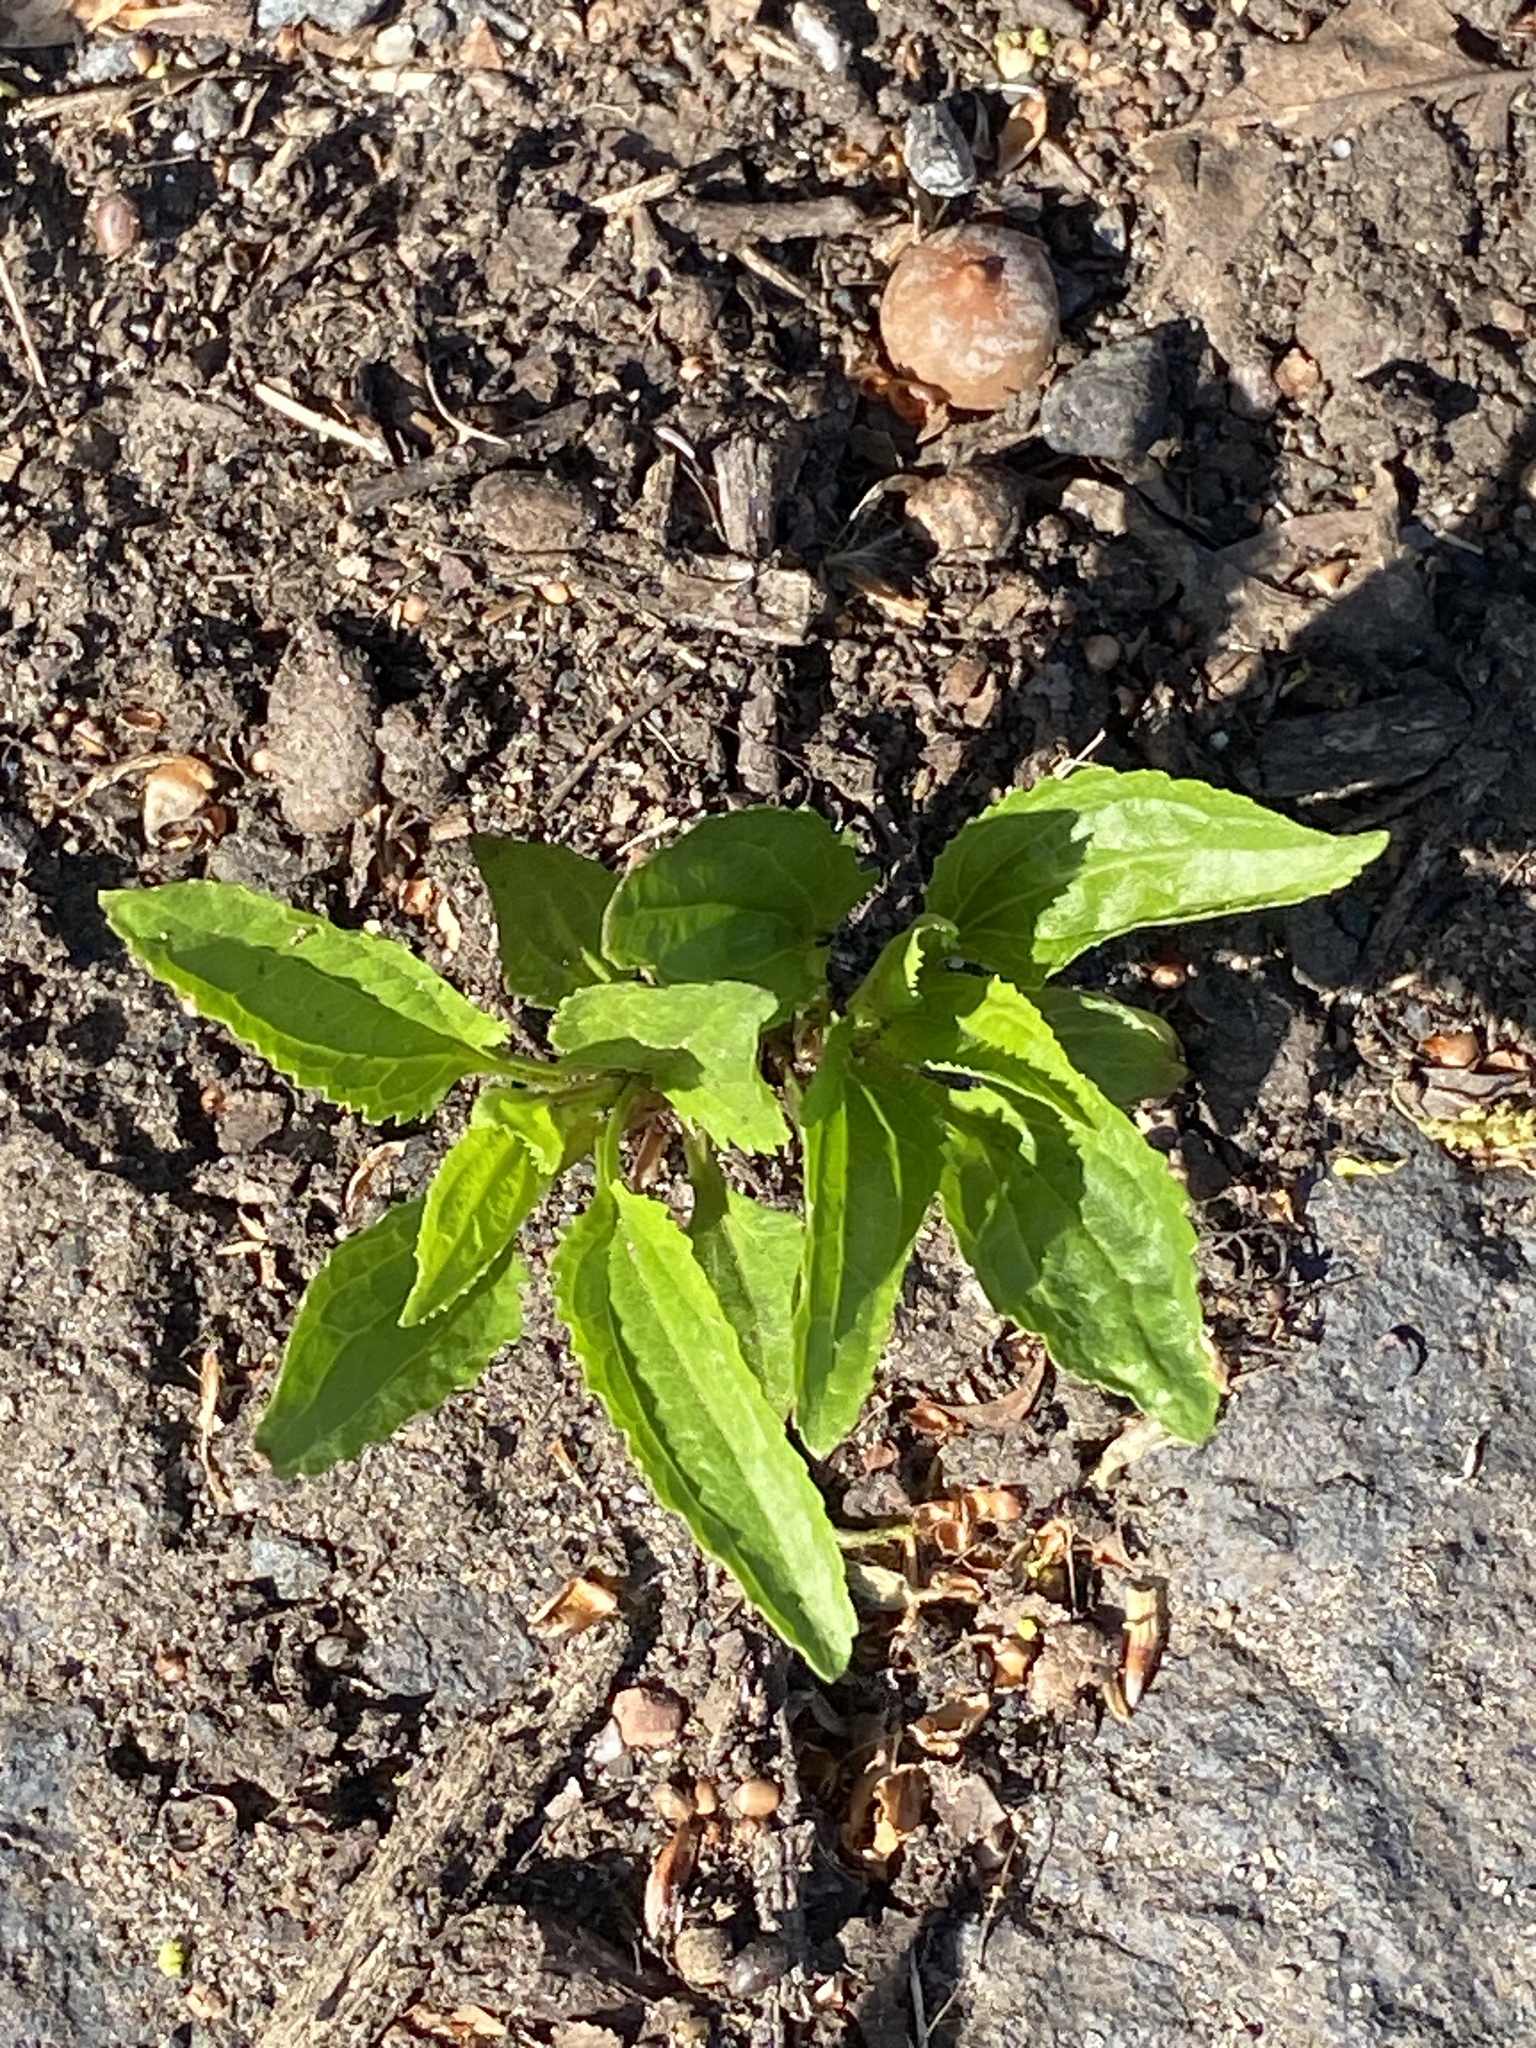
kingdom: Plantae
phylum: Tracheophyta
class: Magnoliopsida
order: Asterales
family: Asteraceae
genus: Eupatorium
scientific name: Eupatorium serotinum
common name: Late boneset
